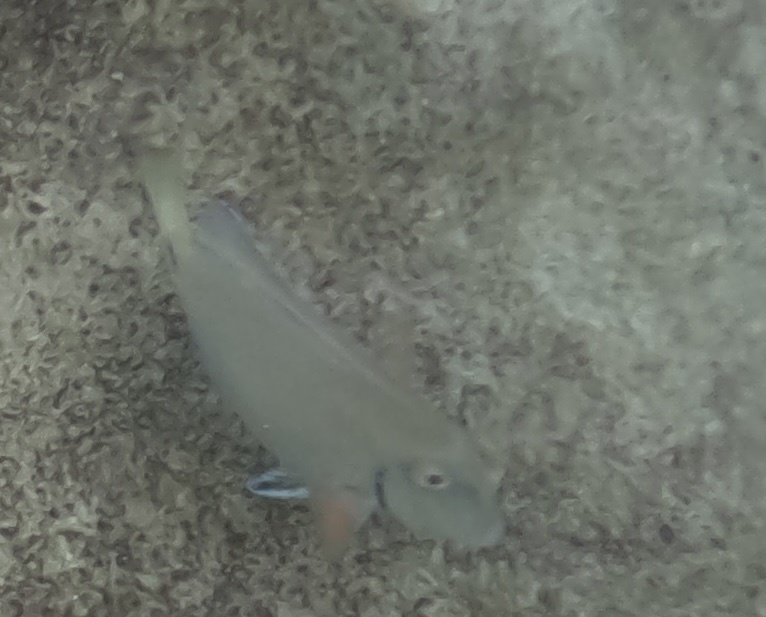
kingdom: Animalia
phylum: Chordata
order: Perciformes
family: Acanthuridae
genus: Acanthurus
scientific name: Acanthurus bahianus
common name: Ocean surgeon
